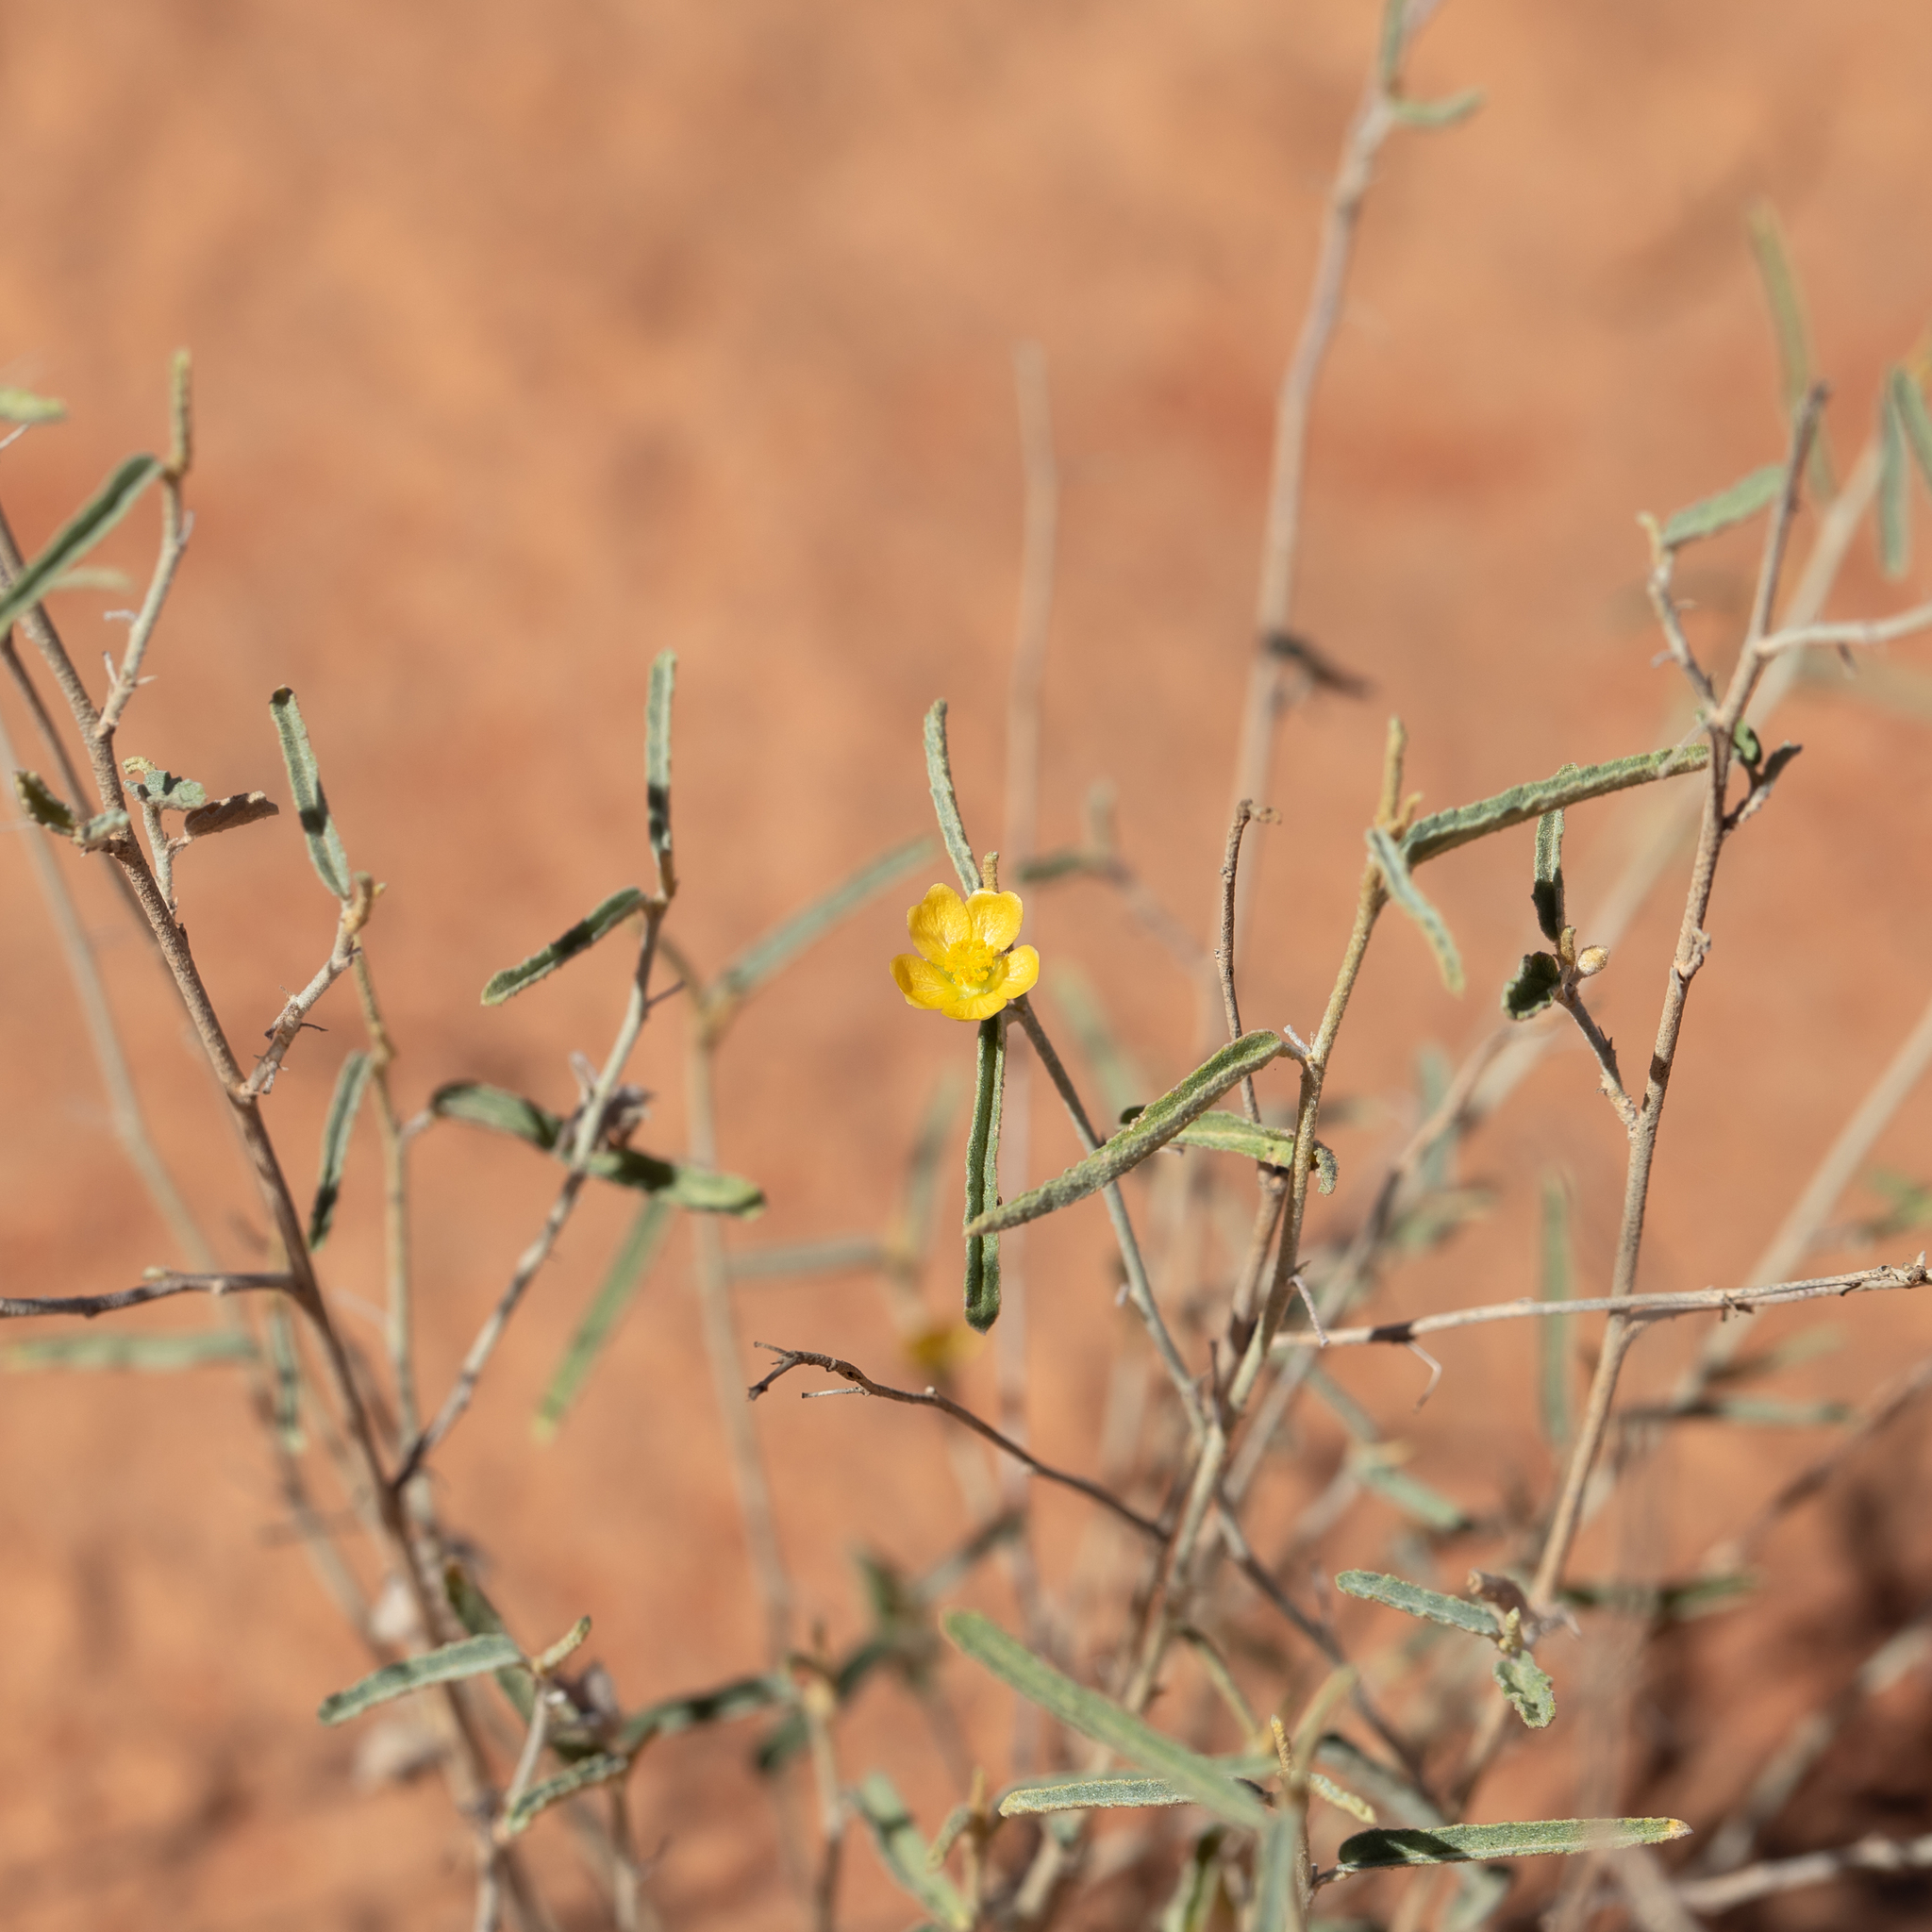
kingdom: Plantae
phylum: Tracheophyta
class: Magnoliopsida
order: Malvales
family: Malvaceae
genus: Sida
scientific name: Sida ammophila
